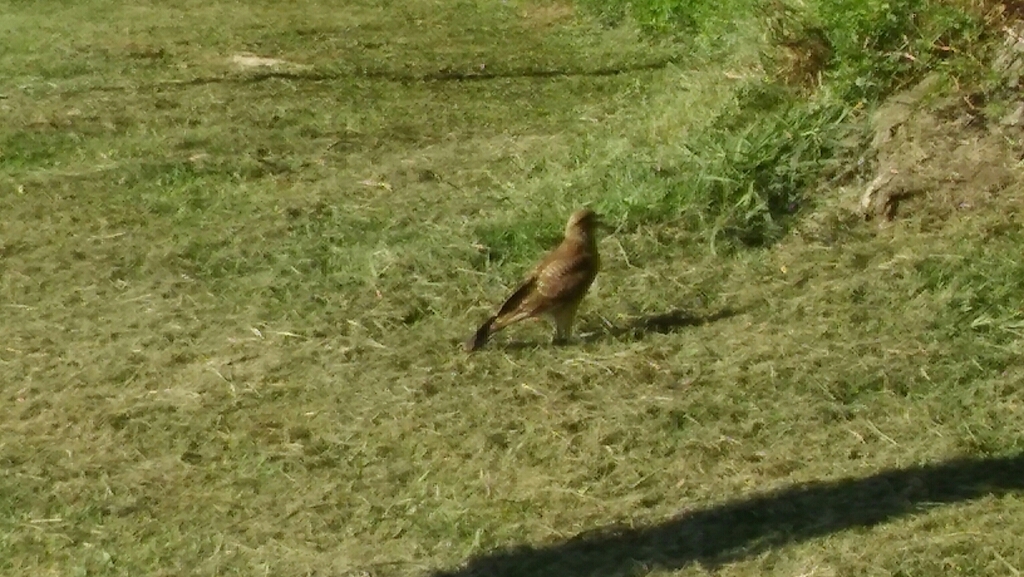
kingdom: Animalia
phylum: Chordata
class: Aves
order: Falconiformes
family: Falconidae
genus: Daptrius
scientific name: Daptrius
